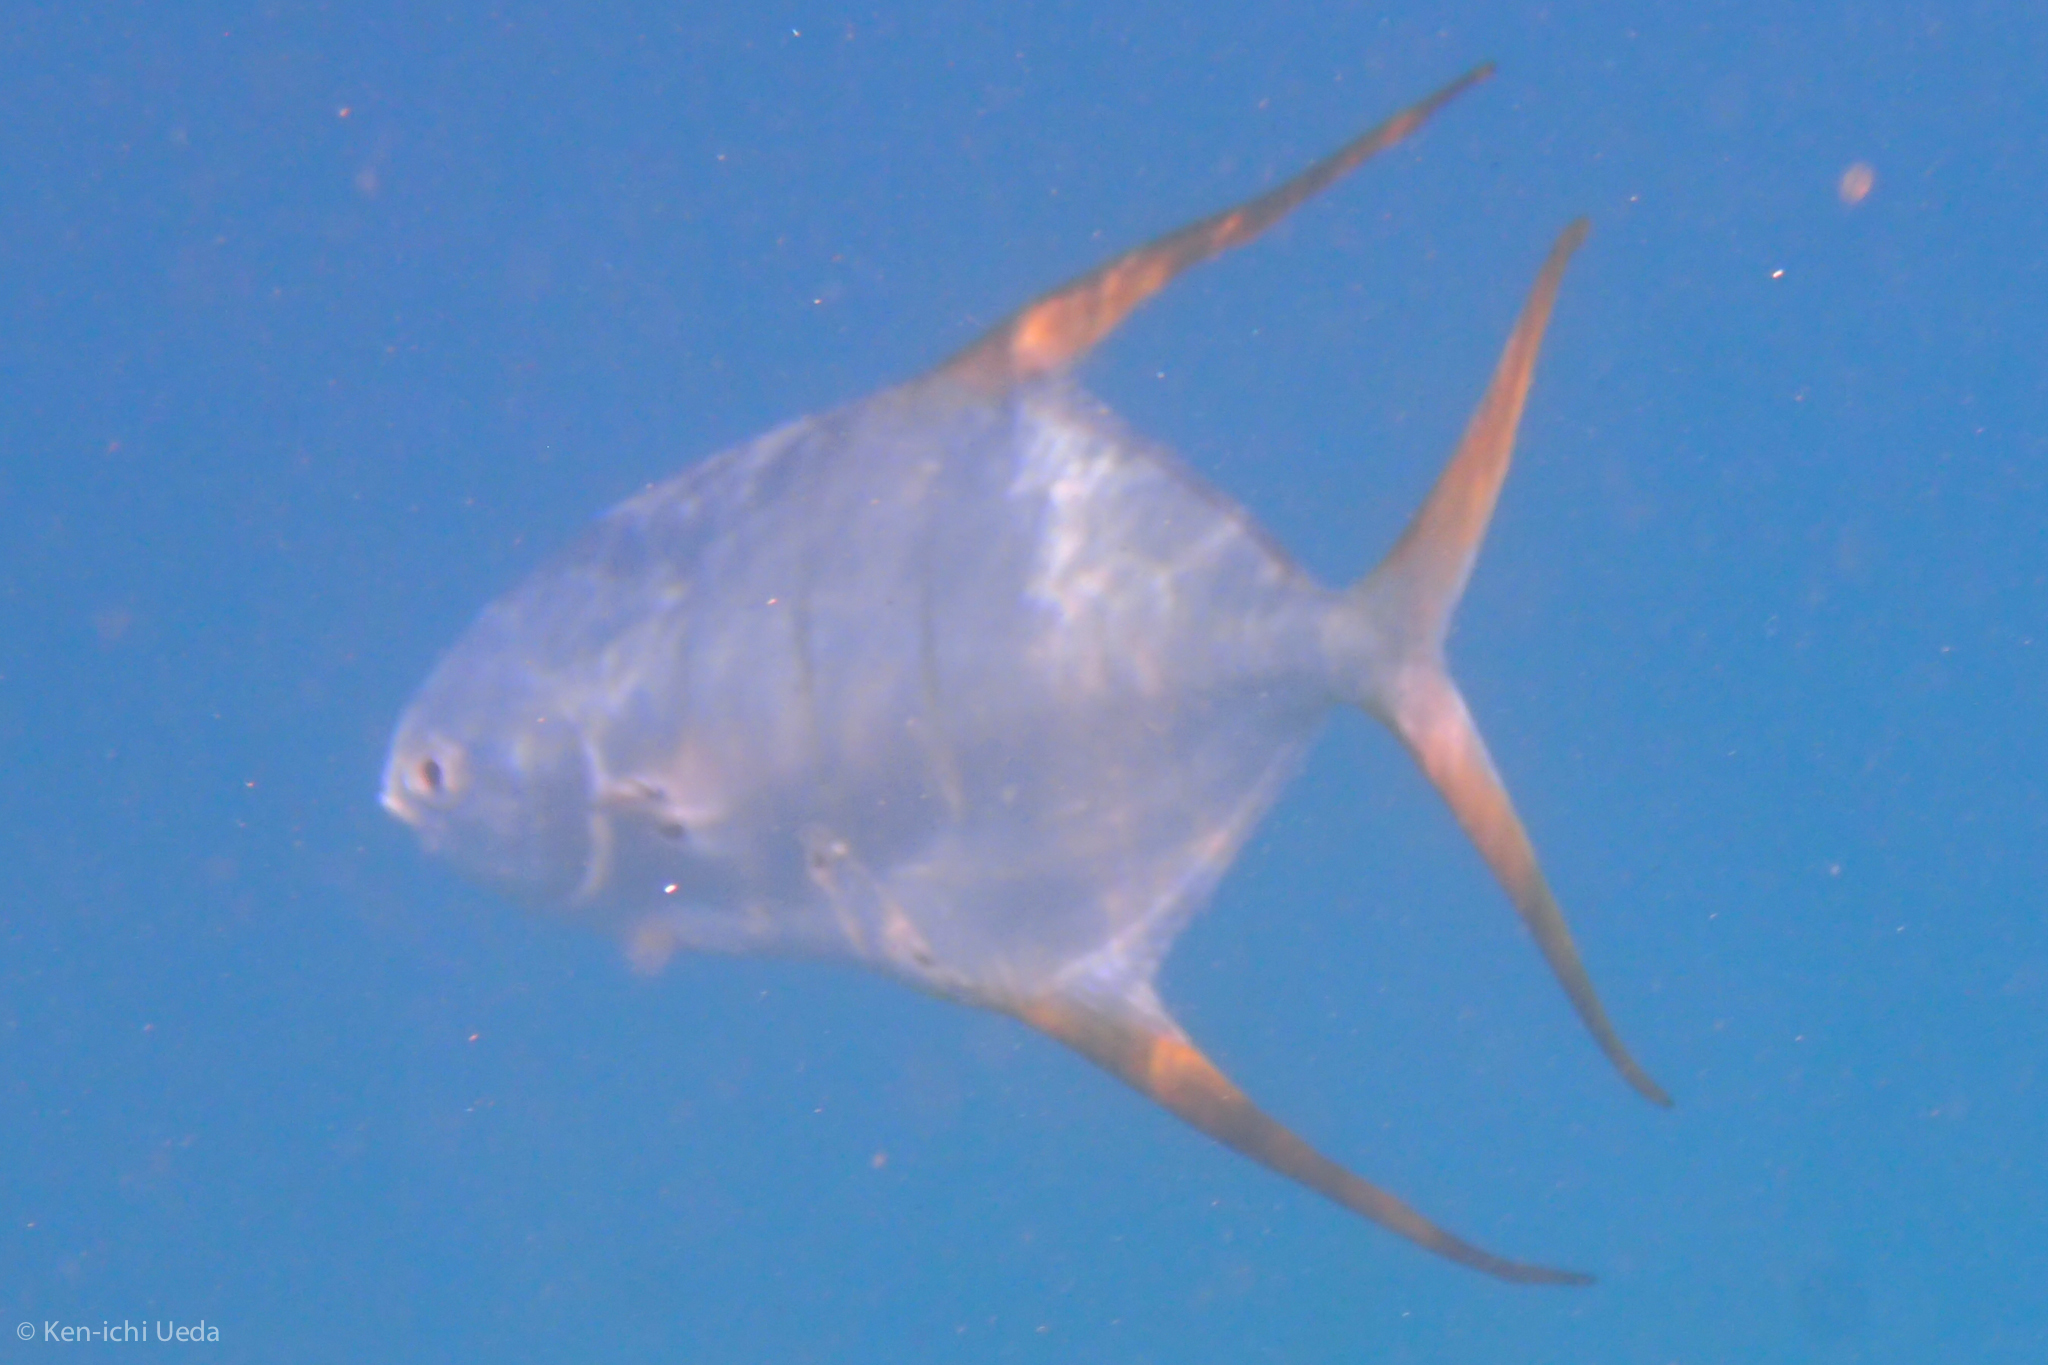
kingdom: Animalia
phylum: Chordata
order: Perciformes
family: Carangidae
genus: Trachinotus
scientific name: Trachinotus rhodopus
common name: Gafftopsail pompano
